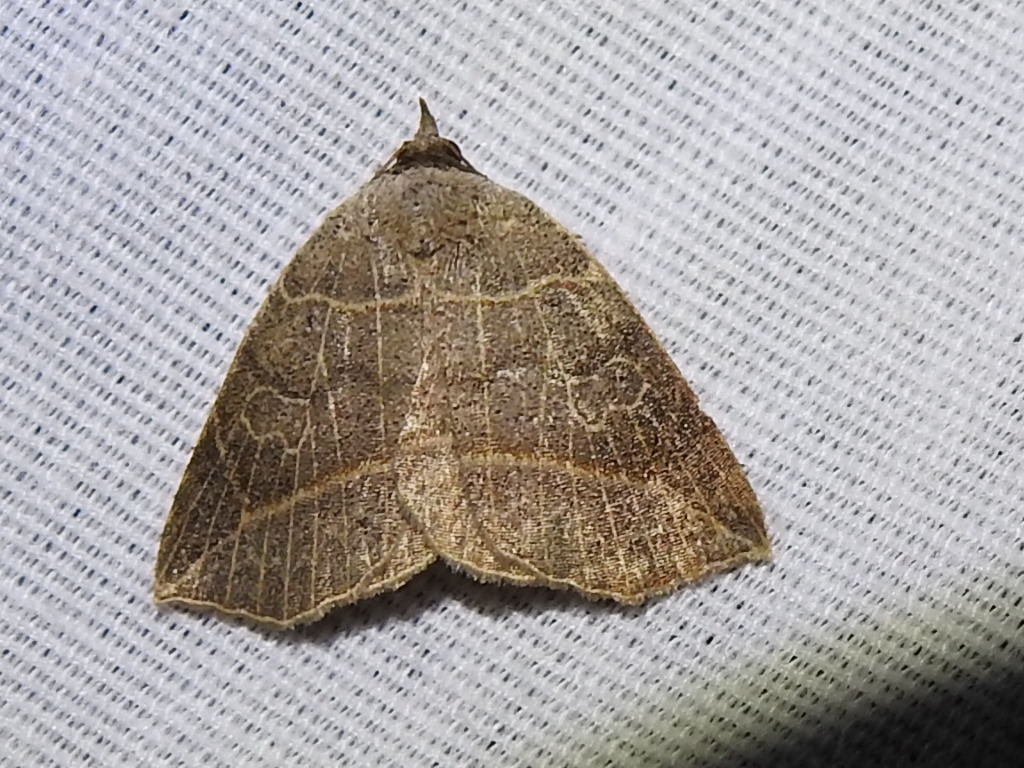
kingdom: Animalia
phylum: Arthropoda
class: Insecta
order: Lepidoptera
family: Erebidae
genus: Isogona
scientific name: Isogona tenuis
